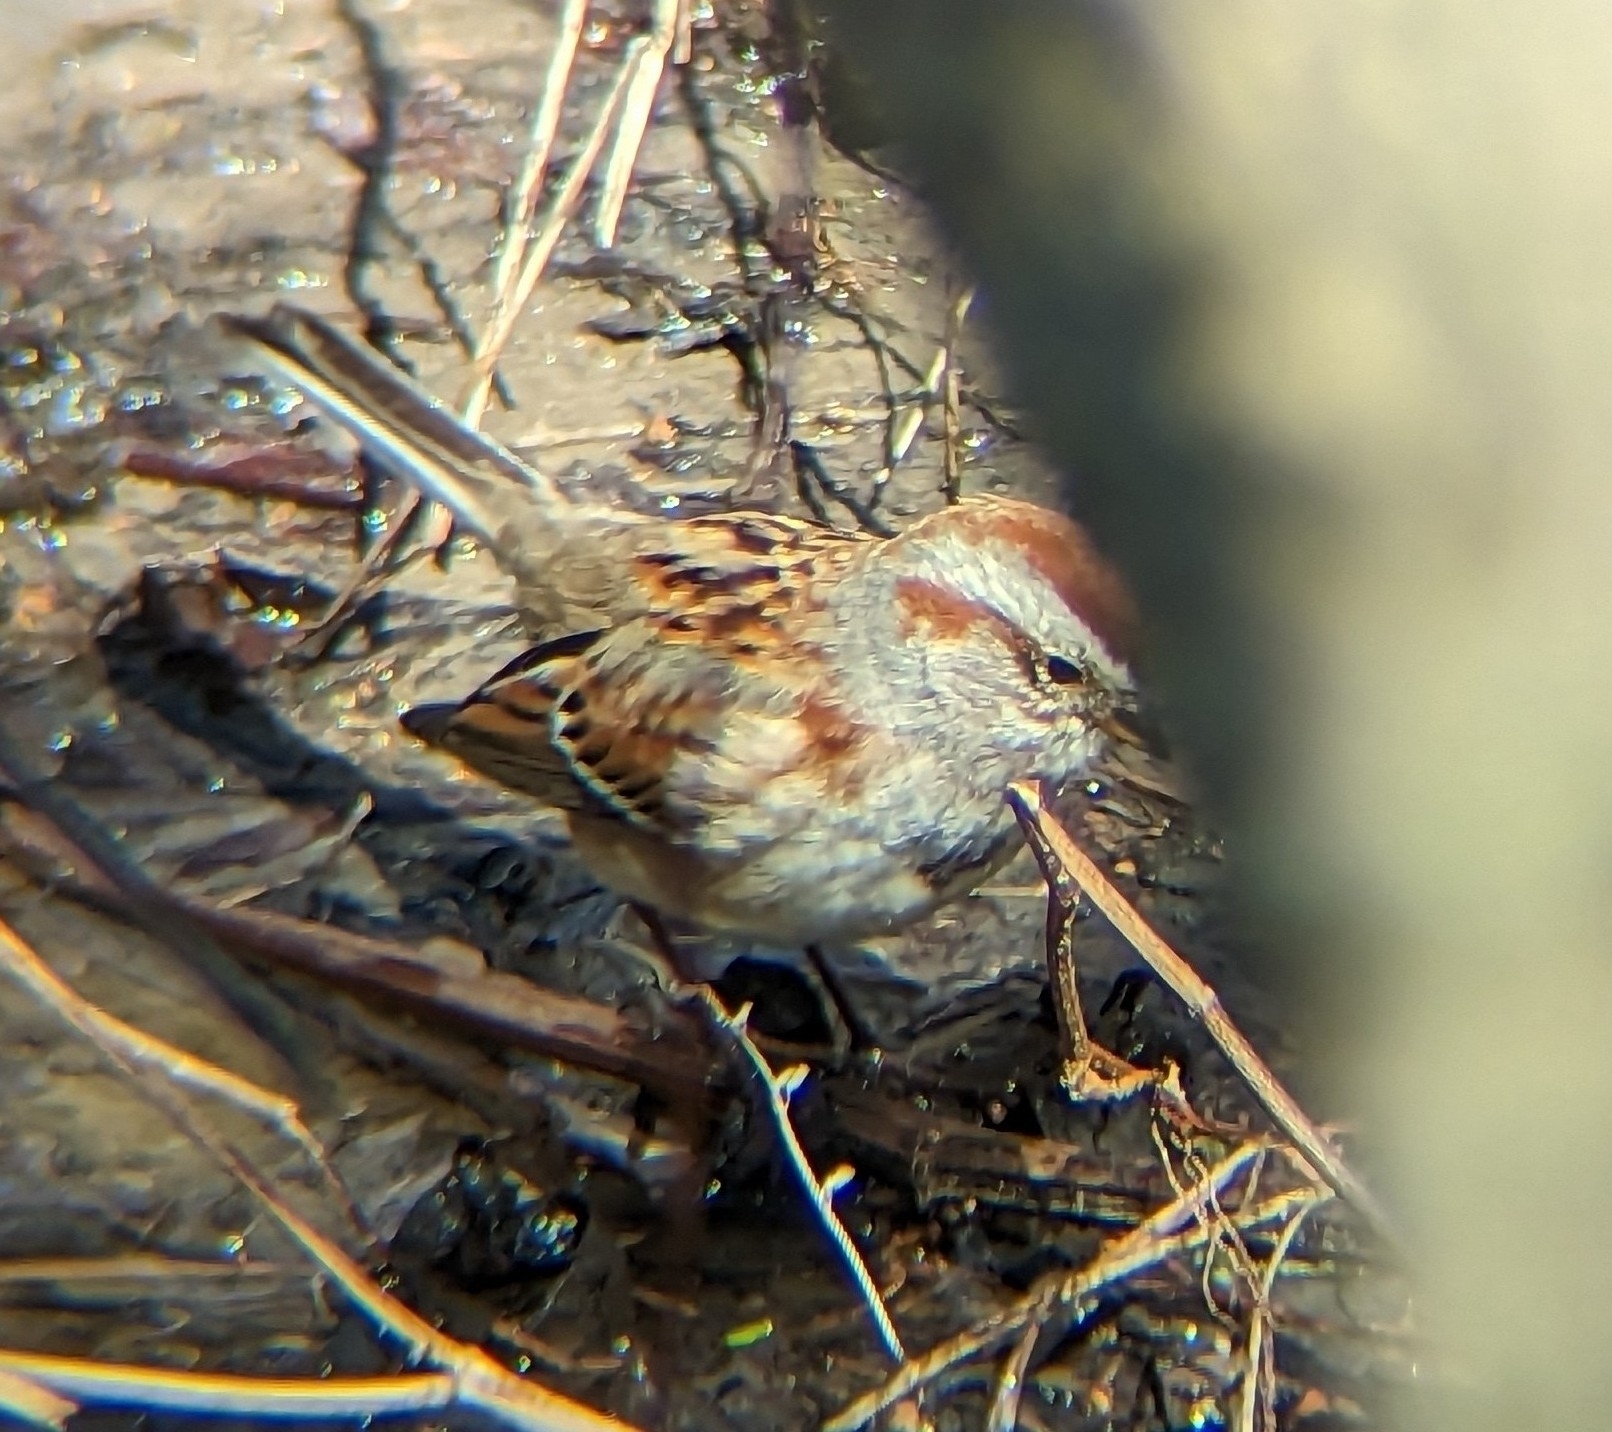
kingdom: Animalia
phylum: Chordata
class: Aves
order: Passeriformes
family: Passerellidae
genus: Spizelloides
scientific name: Spizelloides arborea
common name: American tree sparrow
